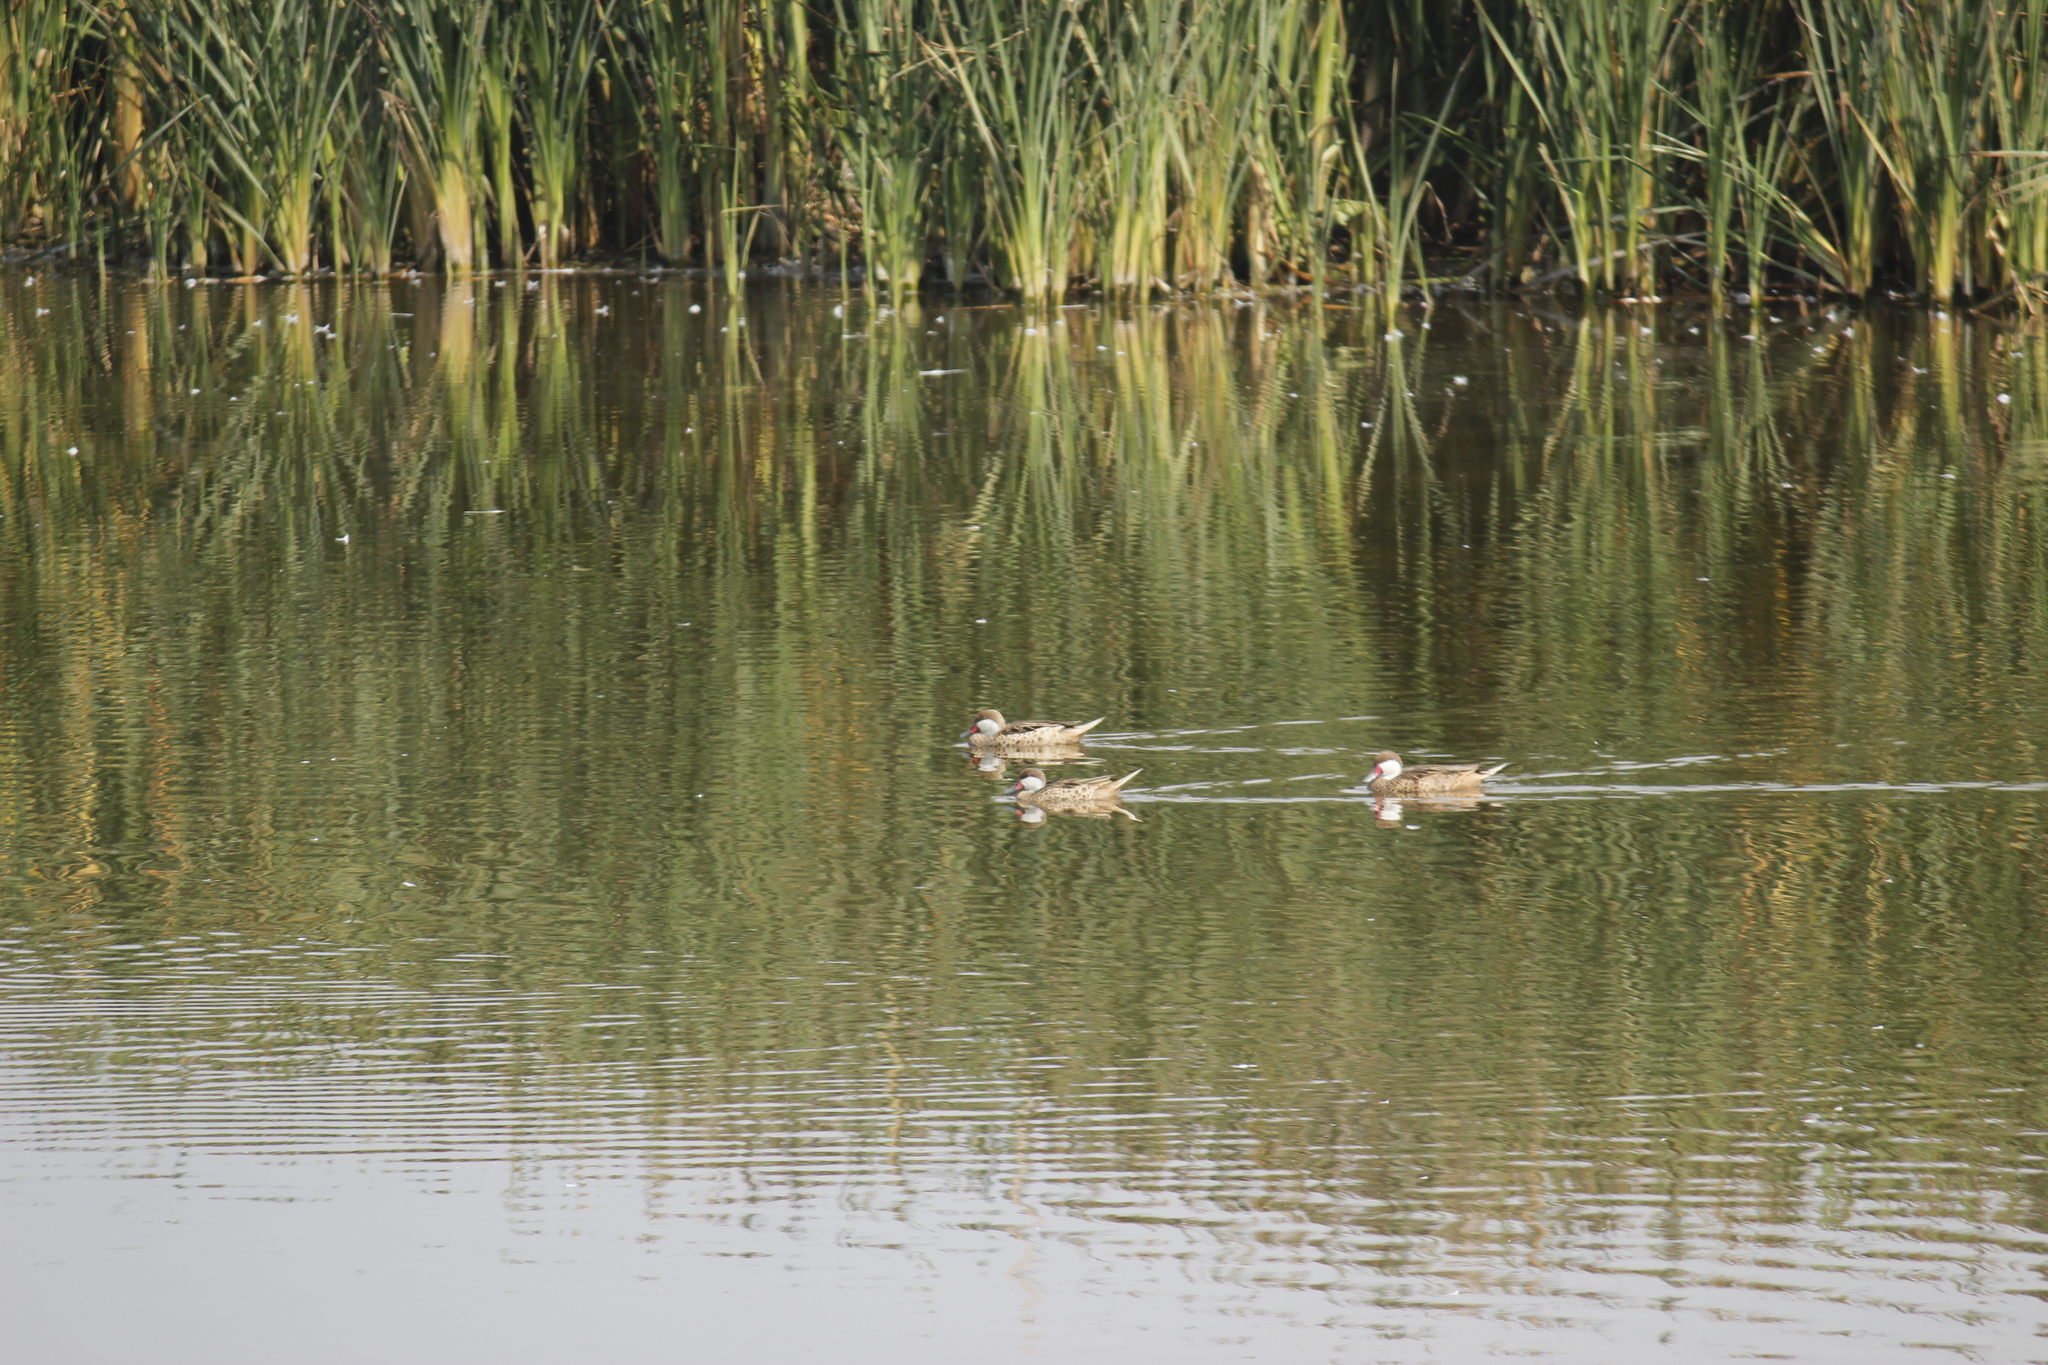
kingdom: Animalia
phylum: Chordata
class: Aves
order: Anseriformes
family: Anatidae
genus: Anas
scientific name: Anas bahamensis
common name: White-cheeked pintail
